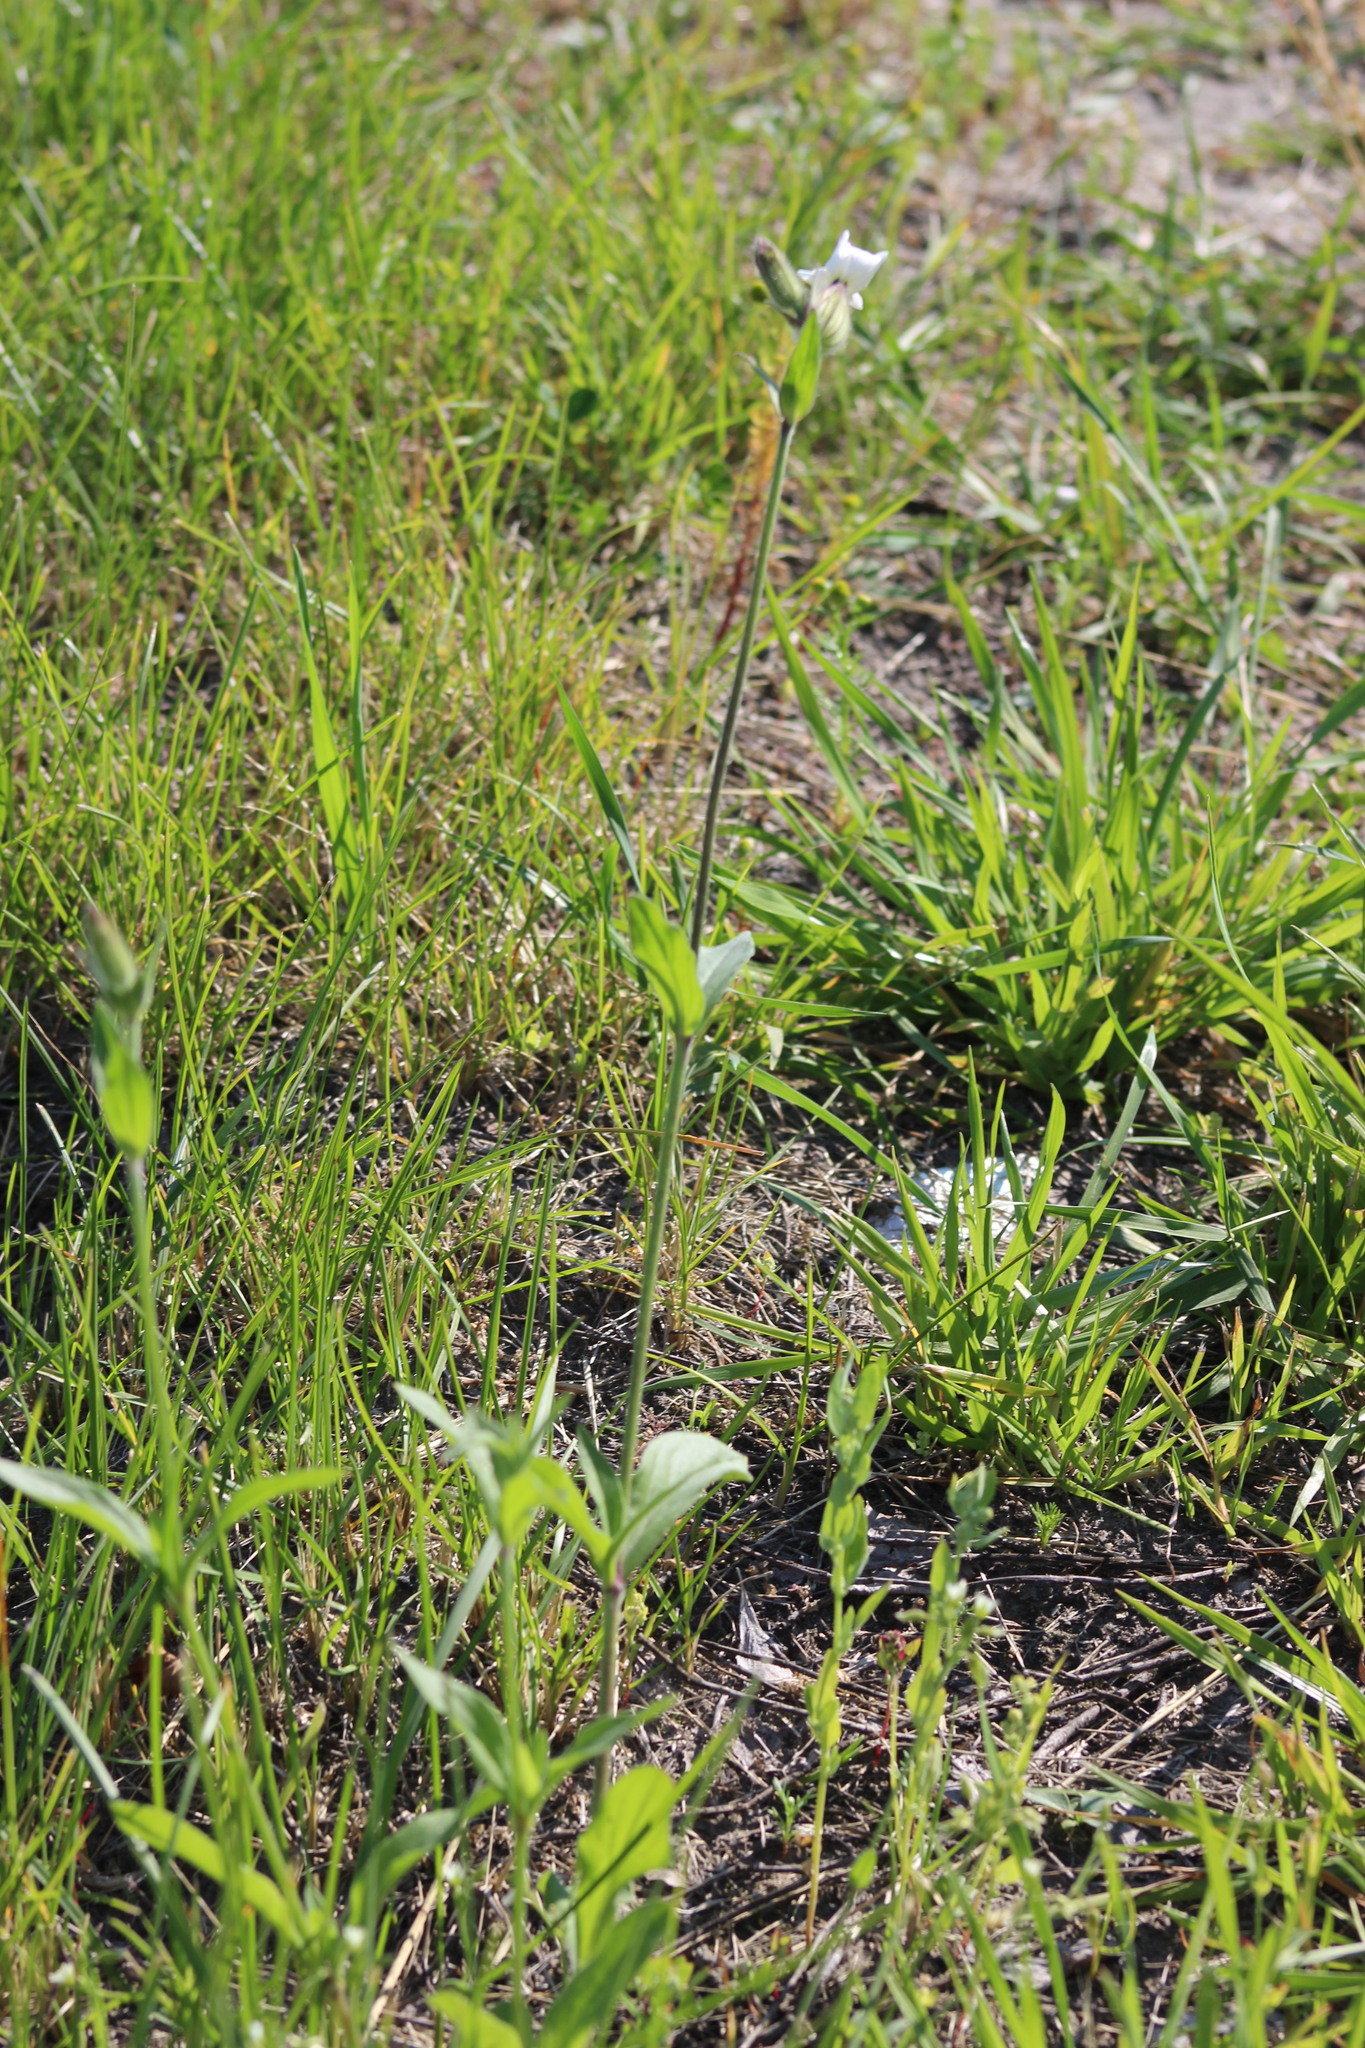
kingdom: Plantae
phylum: Tracheophyta
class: Magnoliopsida
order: Caryophyllales
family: Caryophyllaceae
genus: Silene
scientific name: Silene latifolia
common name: White campion
